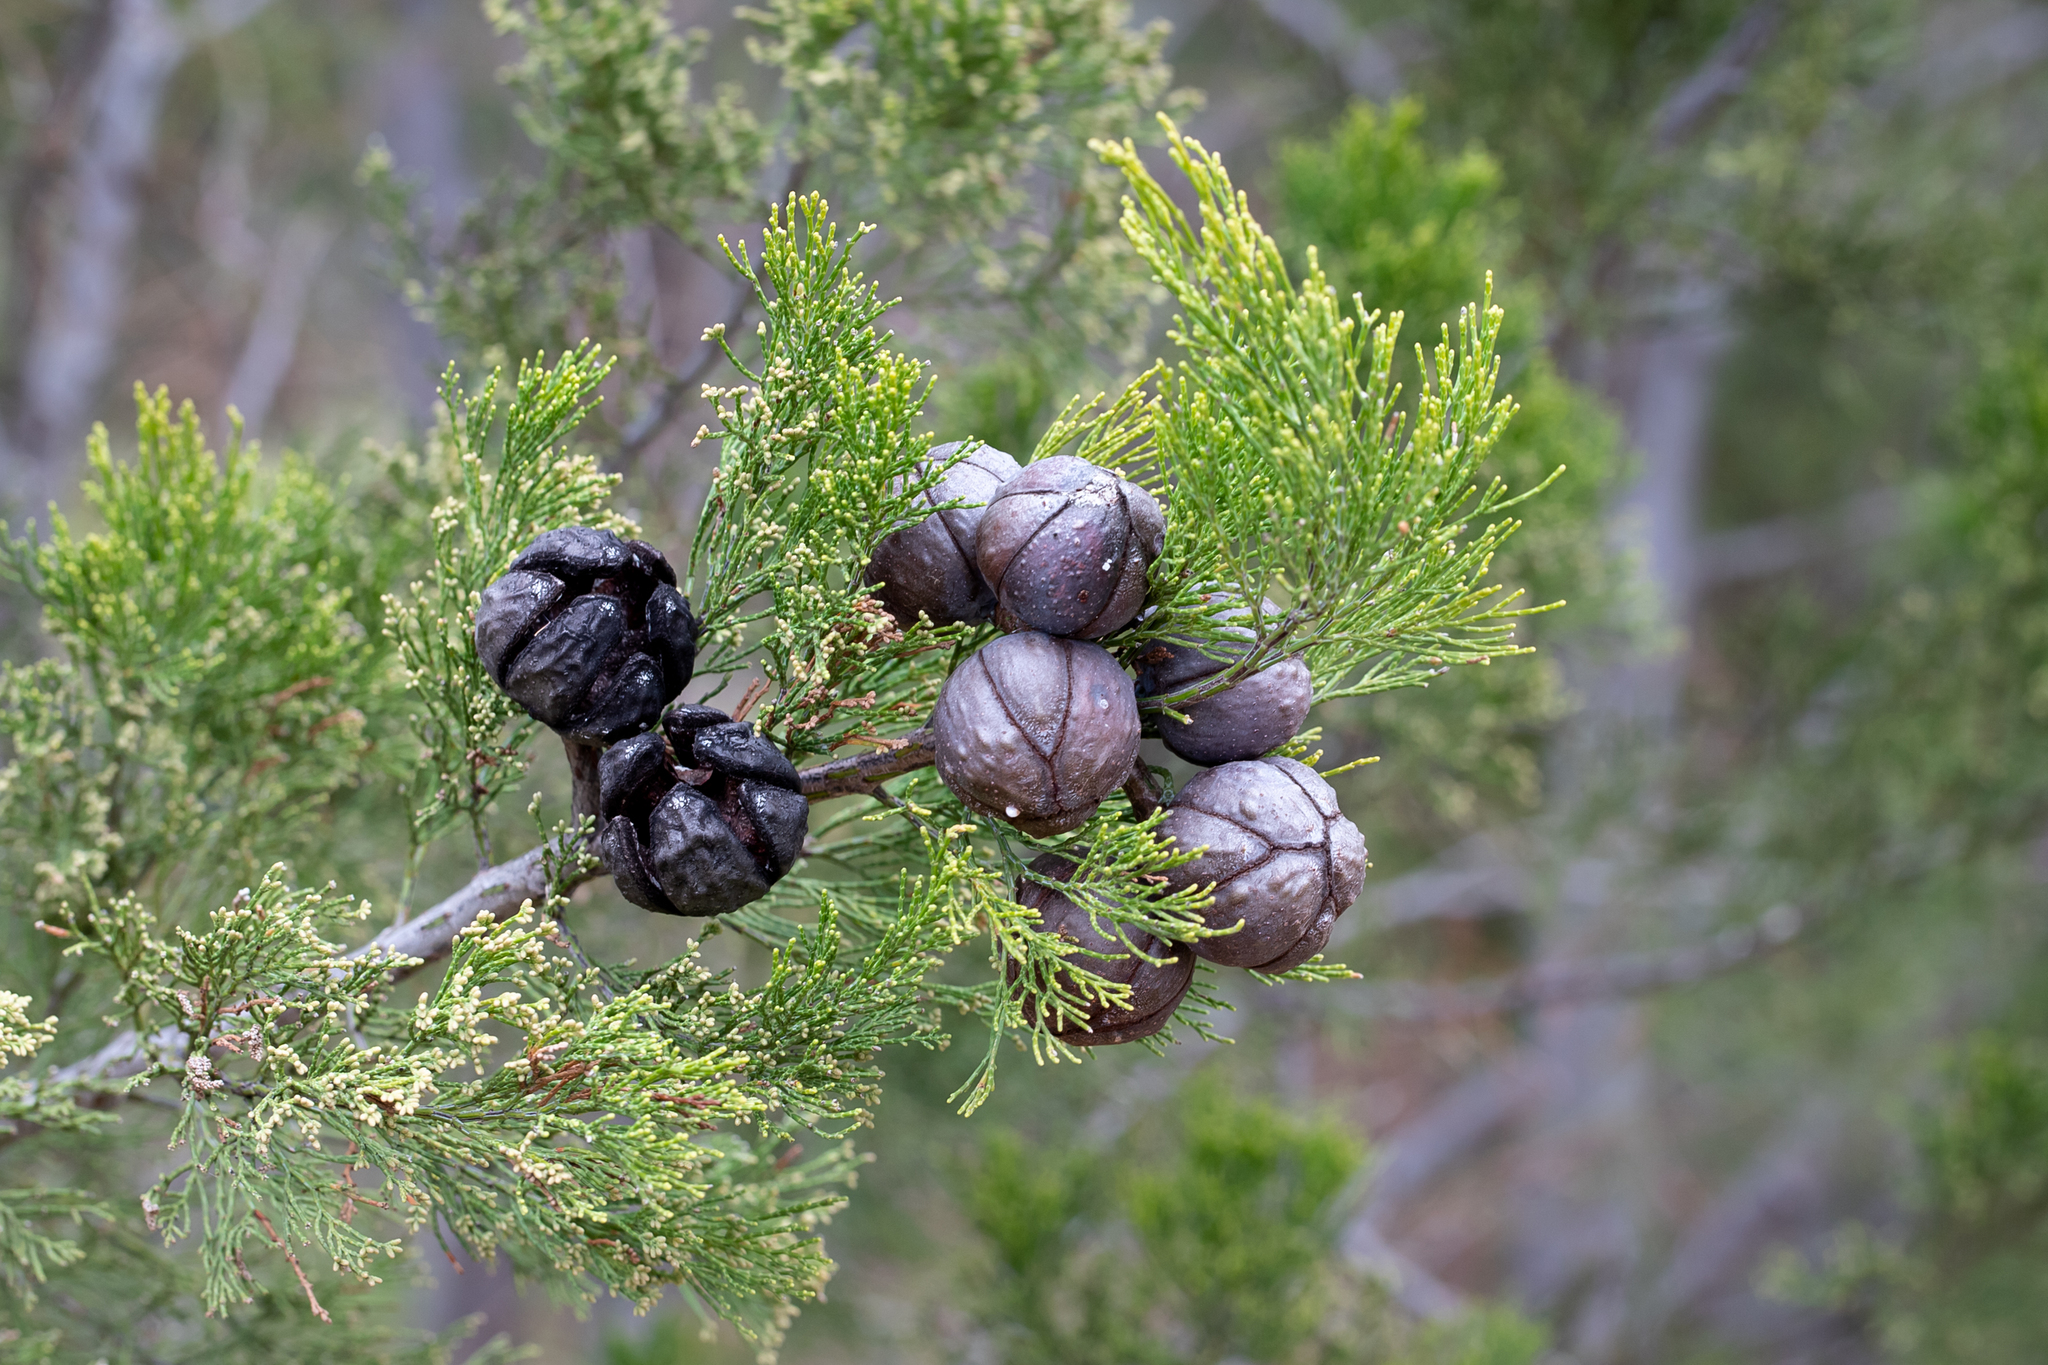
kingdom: Plantae
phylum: Tracheophyta
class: Pinopsida
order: Pinales
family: Cupressaceae
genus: Callitris
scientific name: Callitris preissii
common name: Mallee pine
